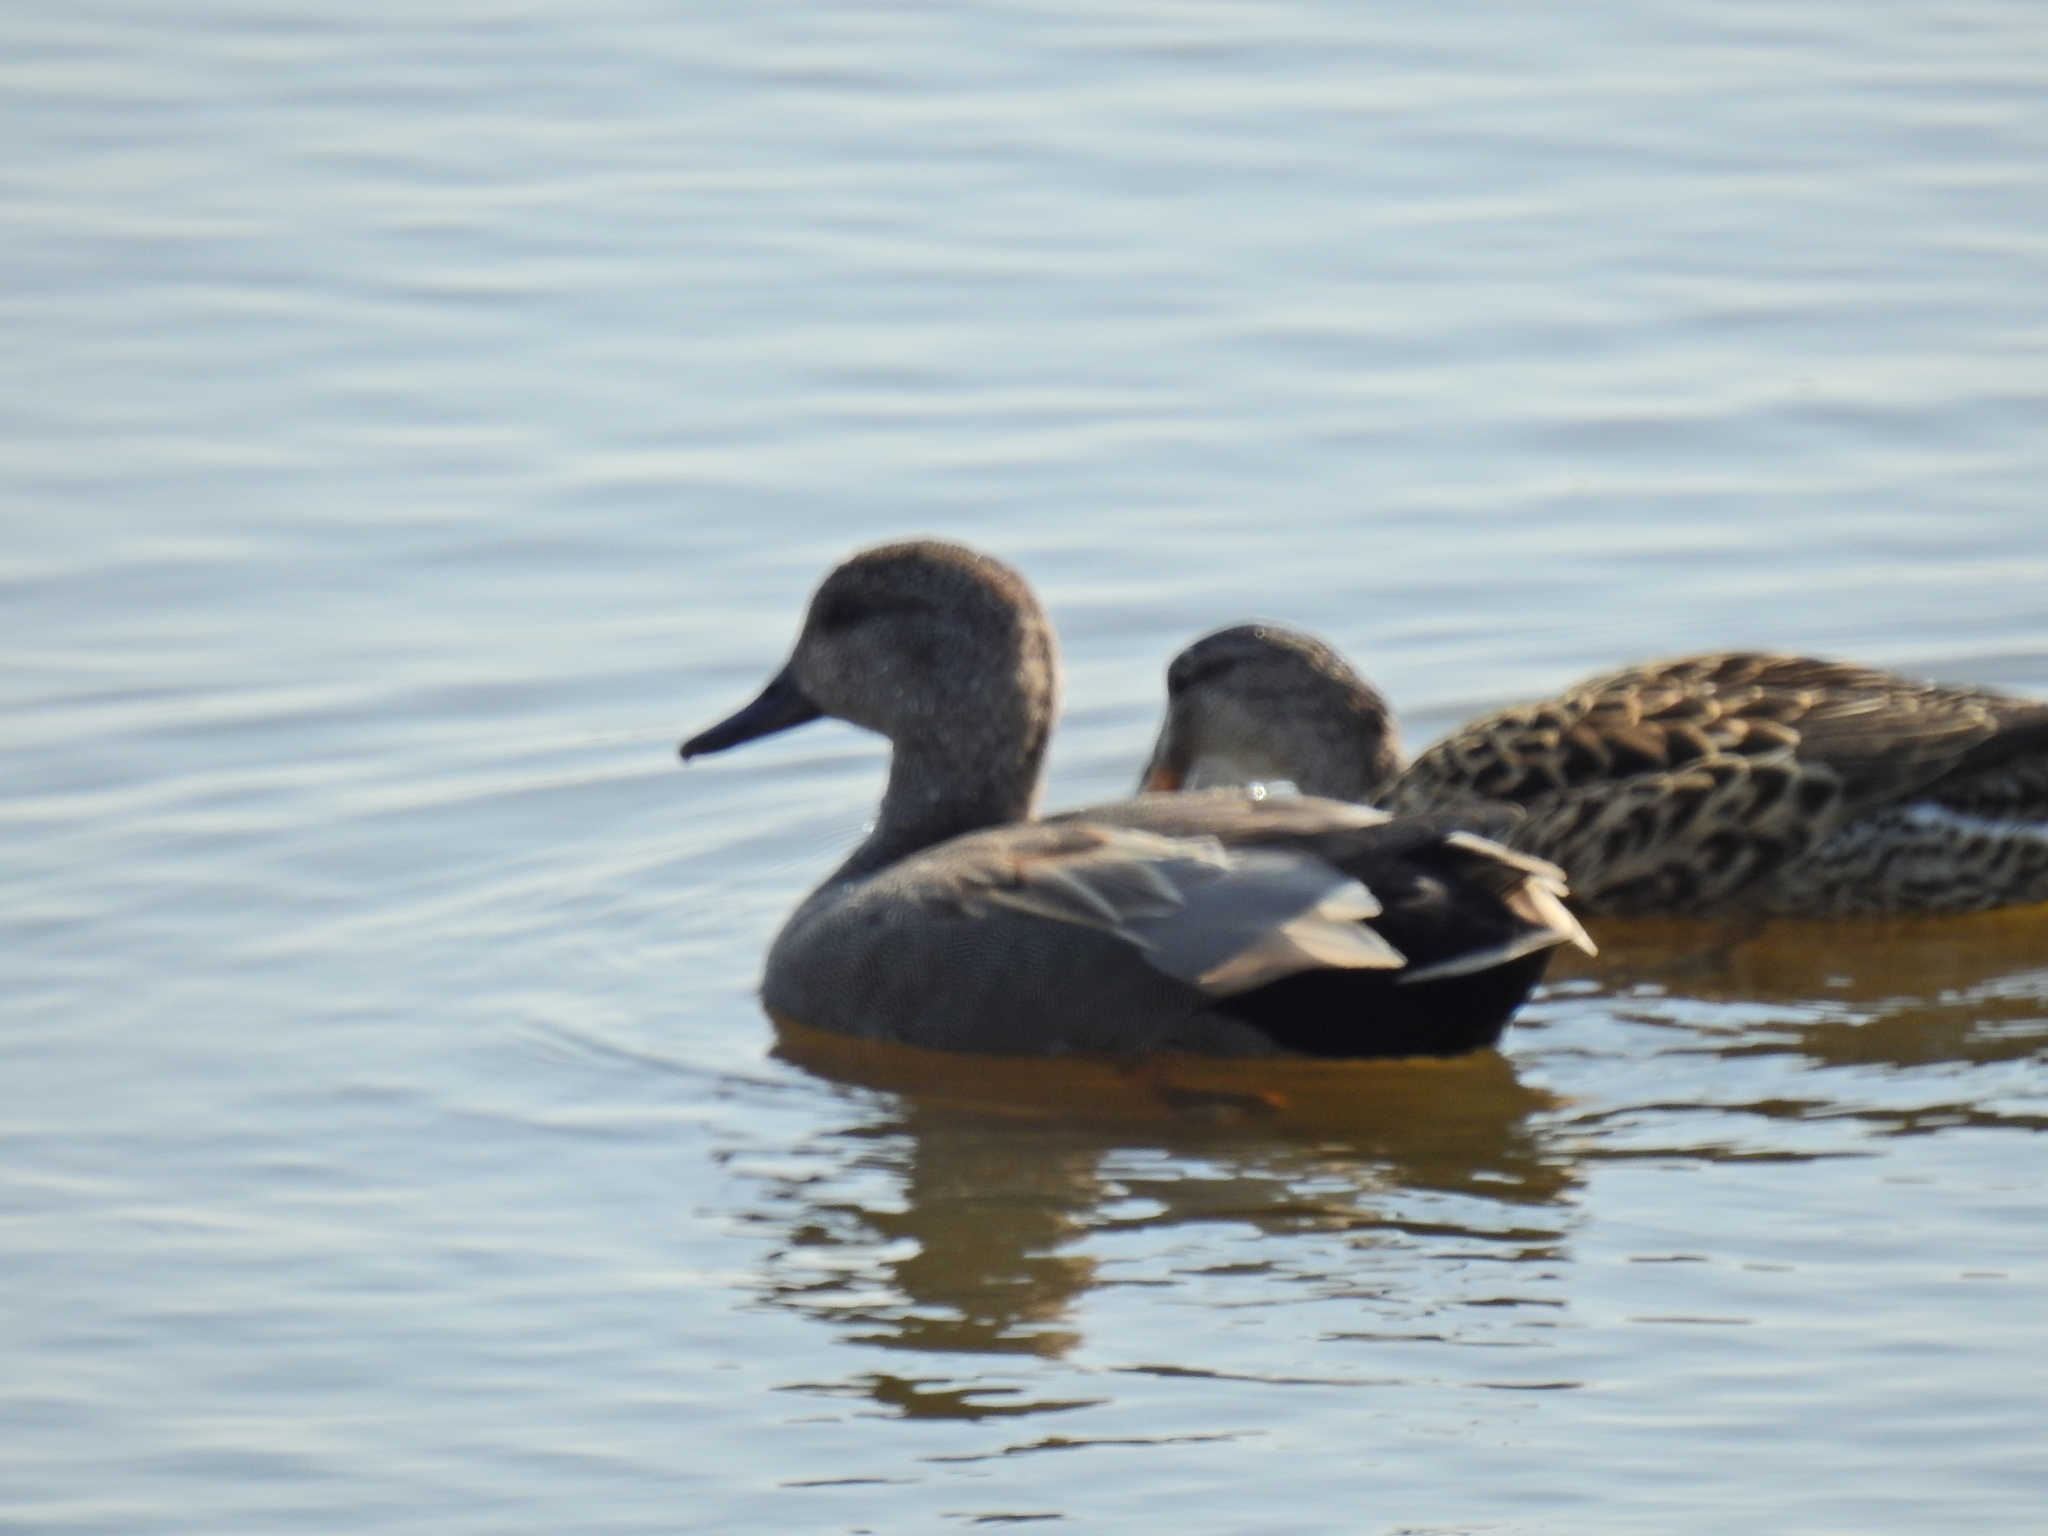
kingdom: Animalia
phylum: Chordata
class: Aves
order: Anseriformes
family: Anatidae
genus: Mareca
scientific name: Mareca strepera
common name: Gadwall
